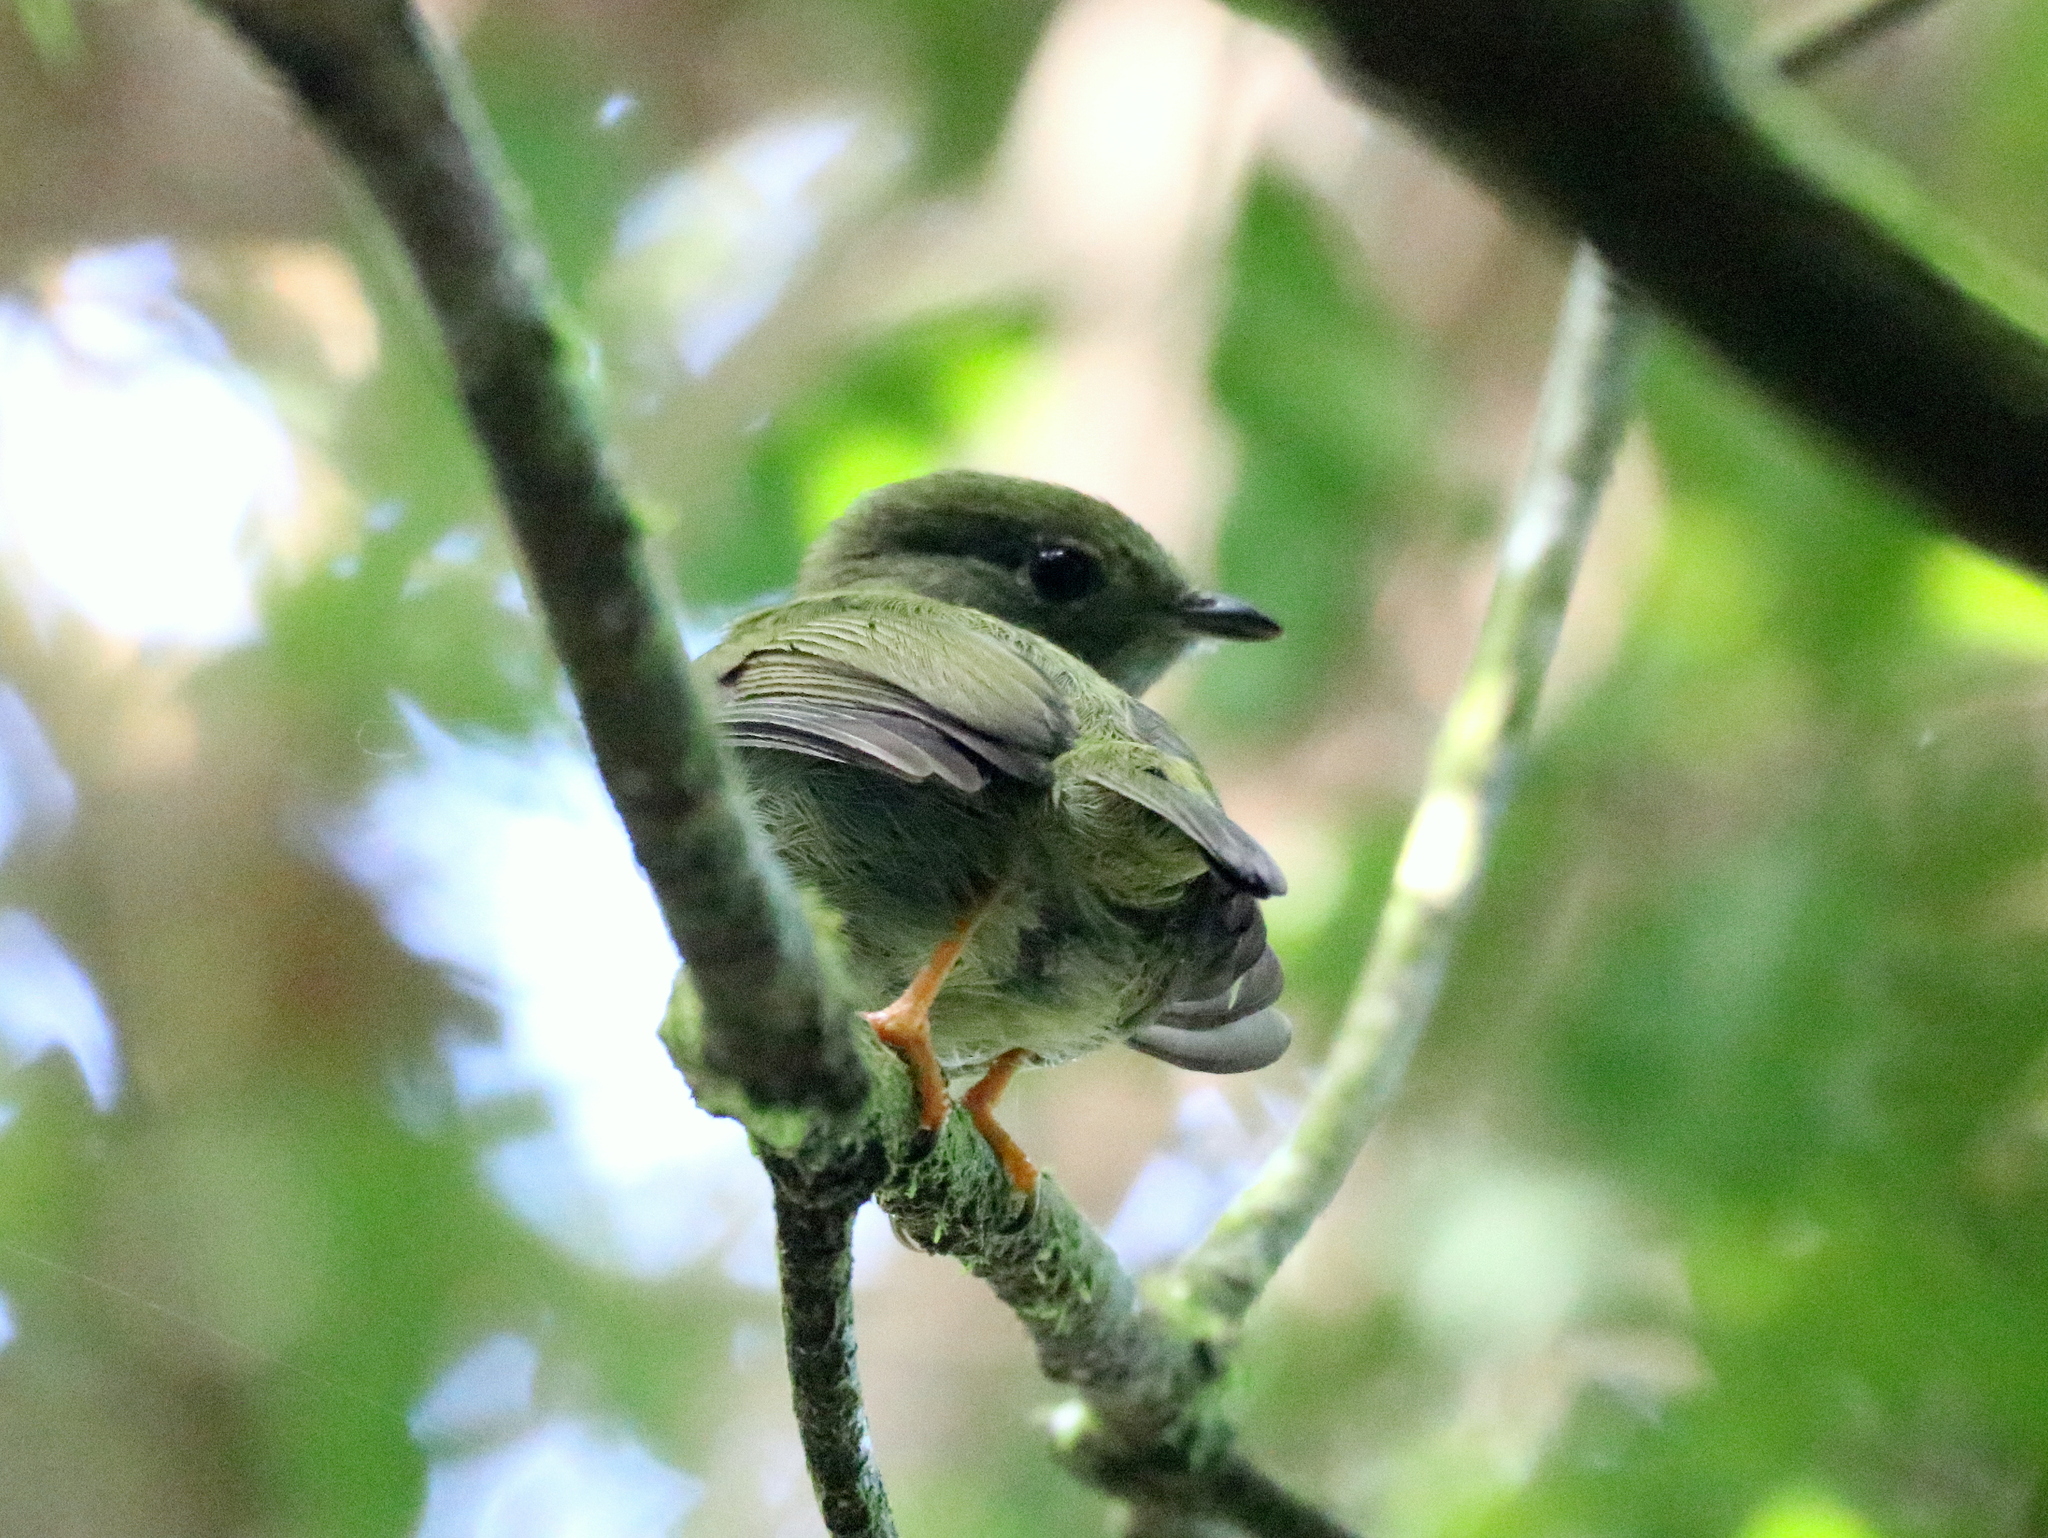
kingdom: Animalia
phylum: Chordata
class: Aves
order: Passeriformes
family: Pipridae
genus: Manacus
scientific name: Manacus manacus
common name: White-bearded manakin
